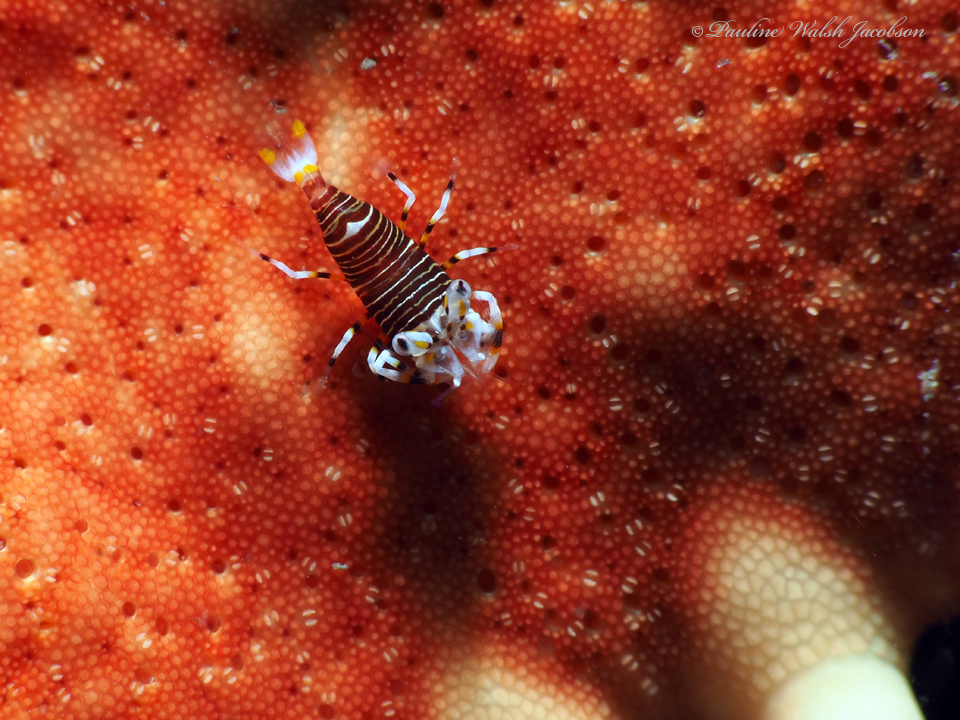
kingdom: Animalia
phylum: Arthropoda
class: Malacostraca
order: Decapoda
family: Palaemonidae
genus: Gnathophyllum
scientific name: Gnathophyllum americanum
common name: Bumblebee shrimp
